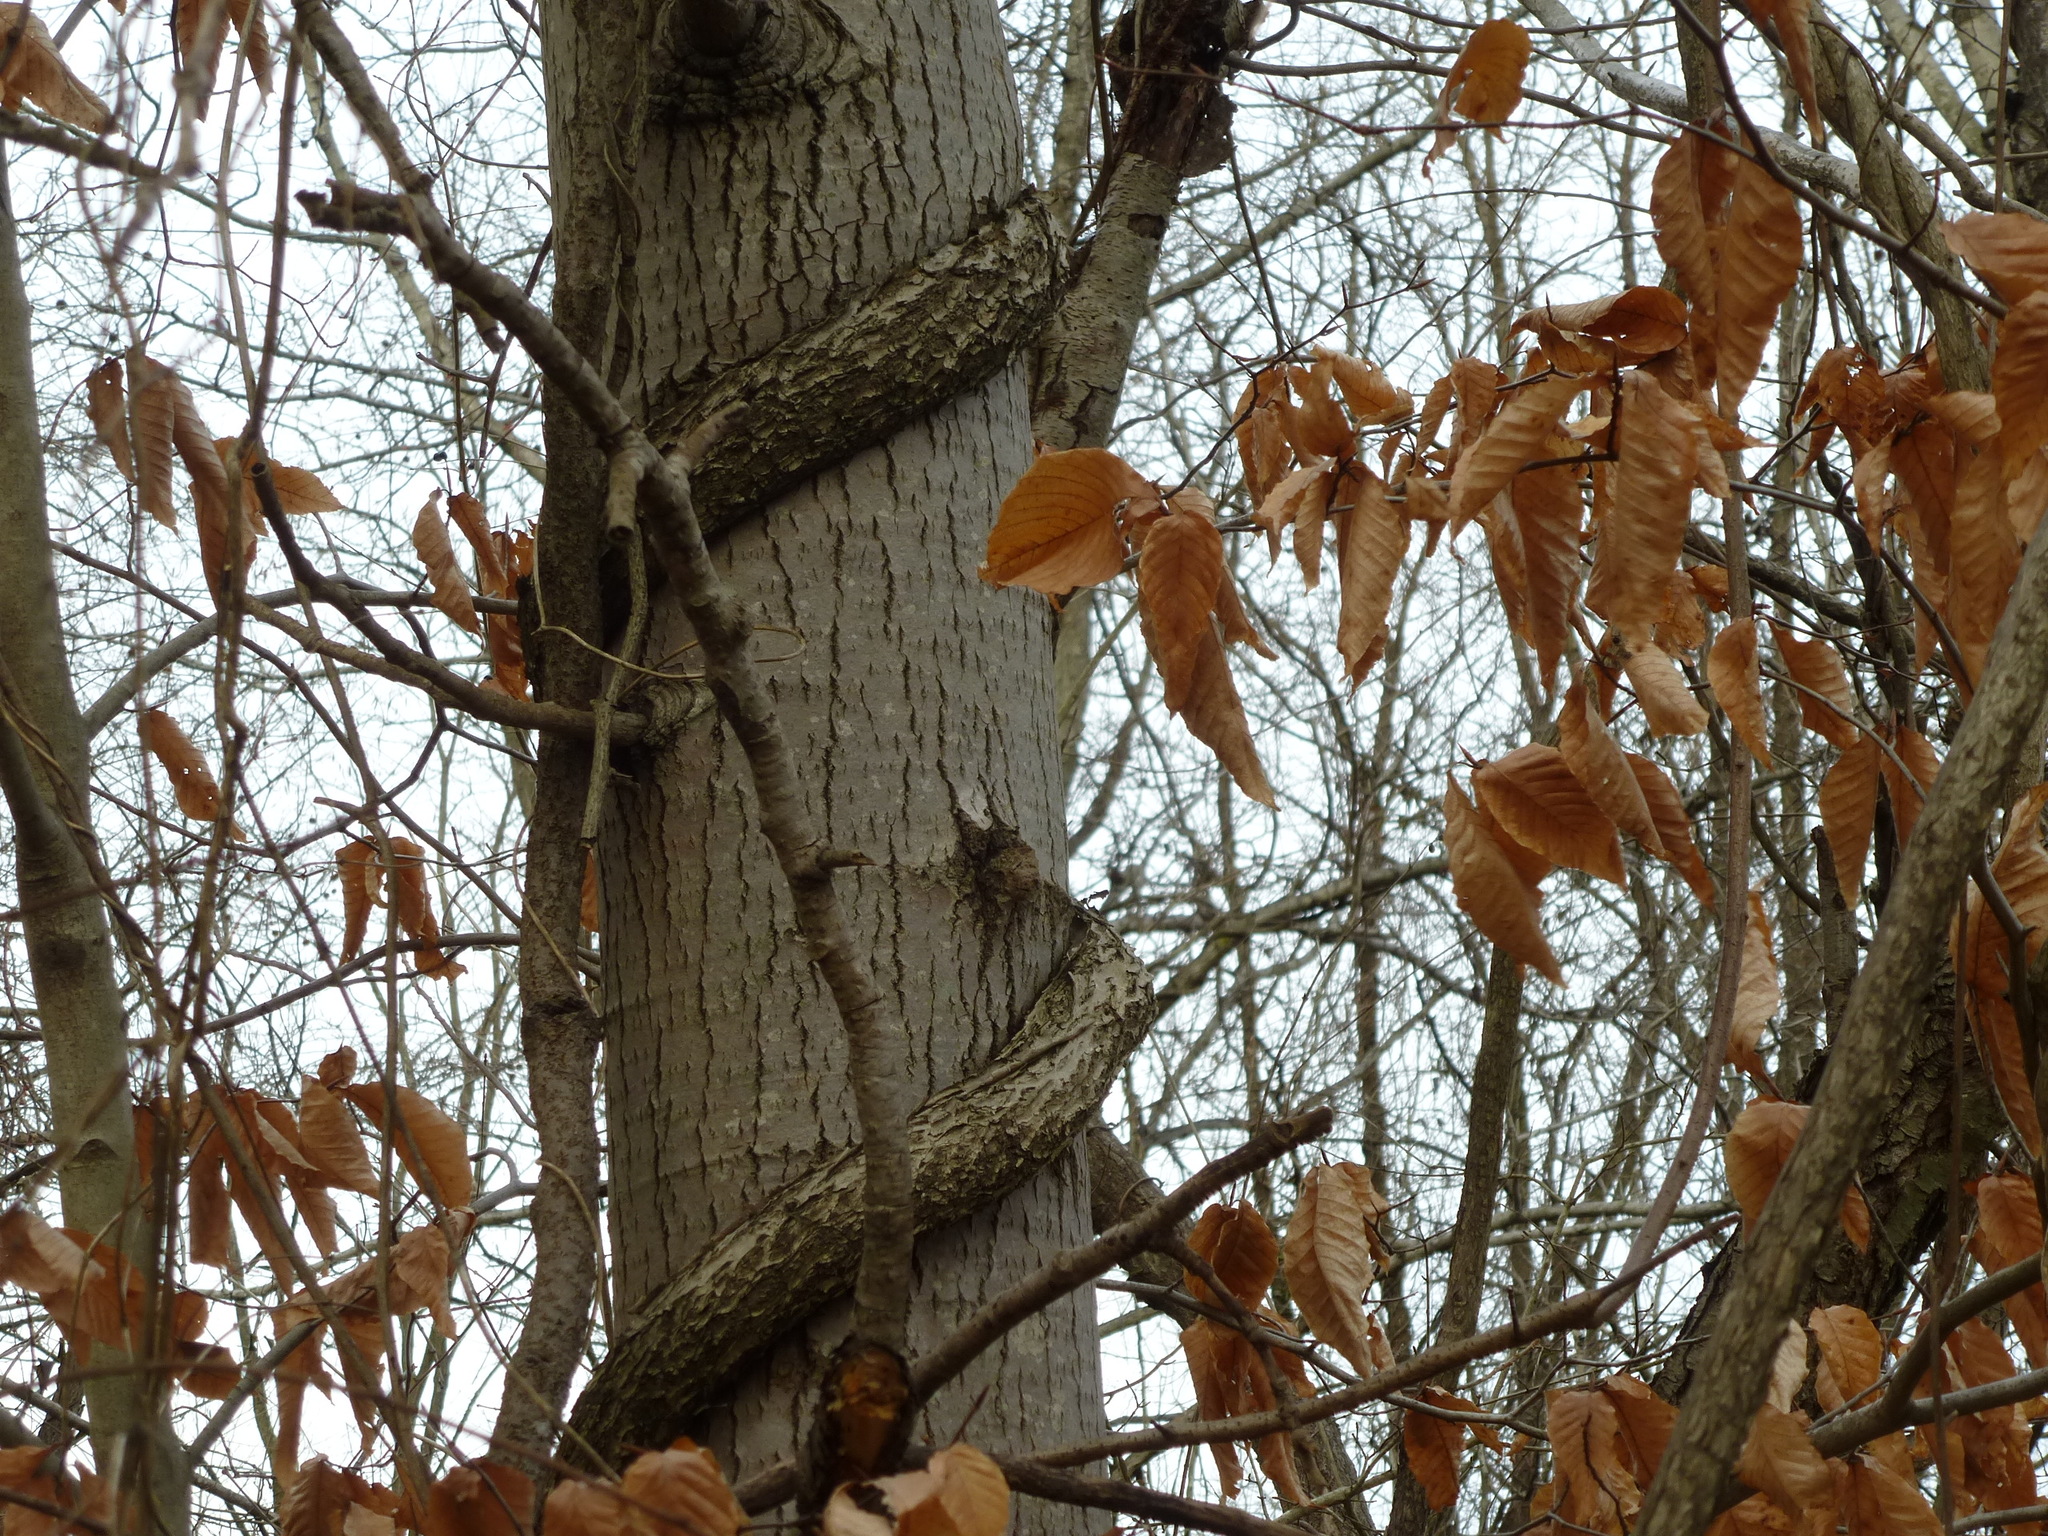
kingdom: Plantae
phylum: Tracheophyta
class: Magnoliopsida
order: Magnoliales
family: Magnoliaceae
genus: Liriodendron
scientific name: Liriodendron tulipifera
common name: Tulip tree
